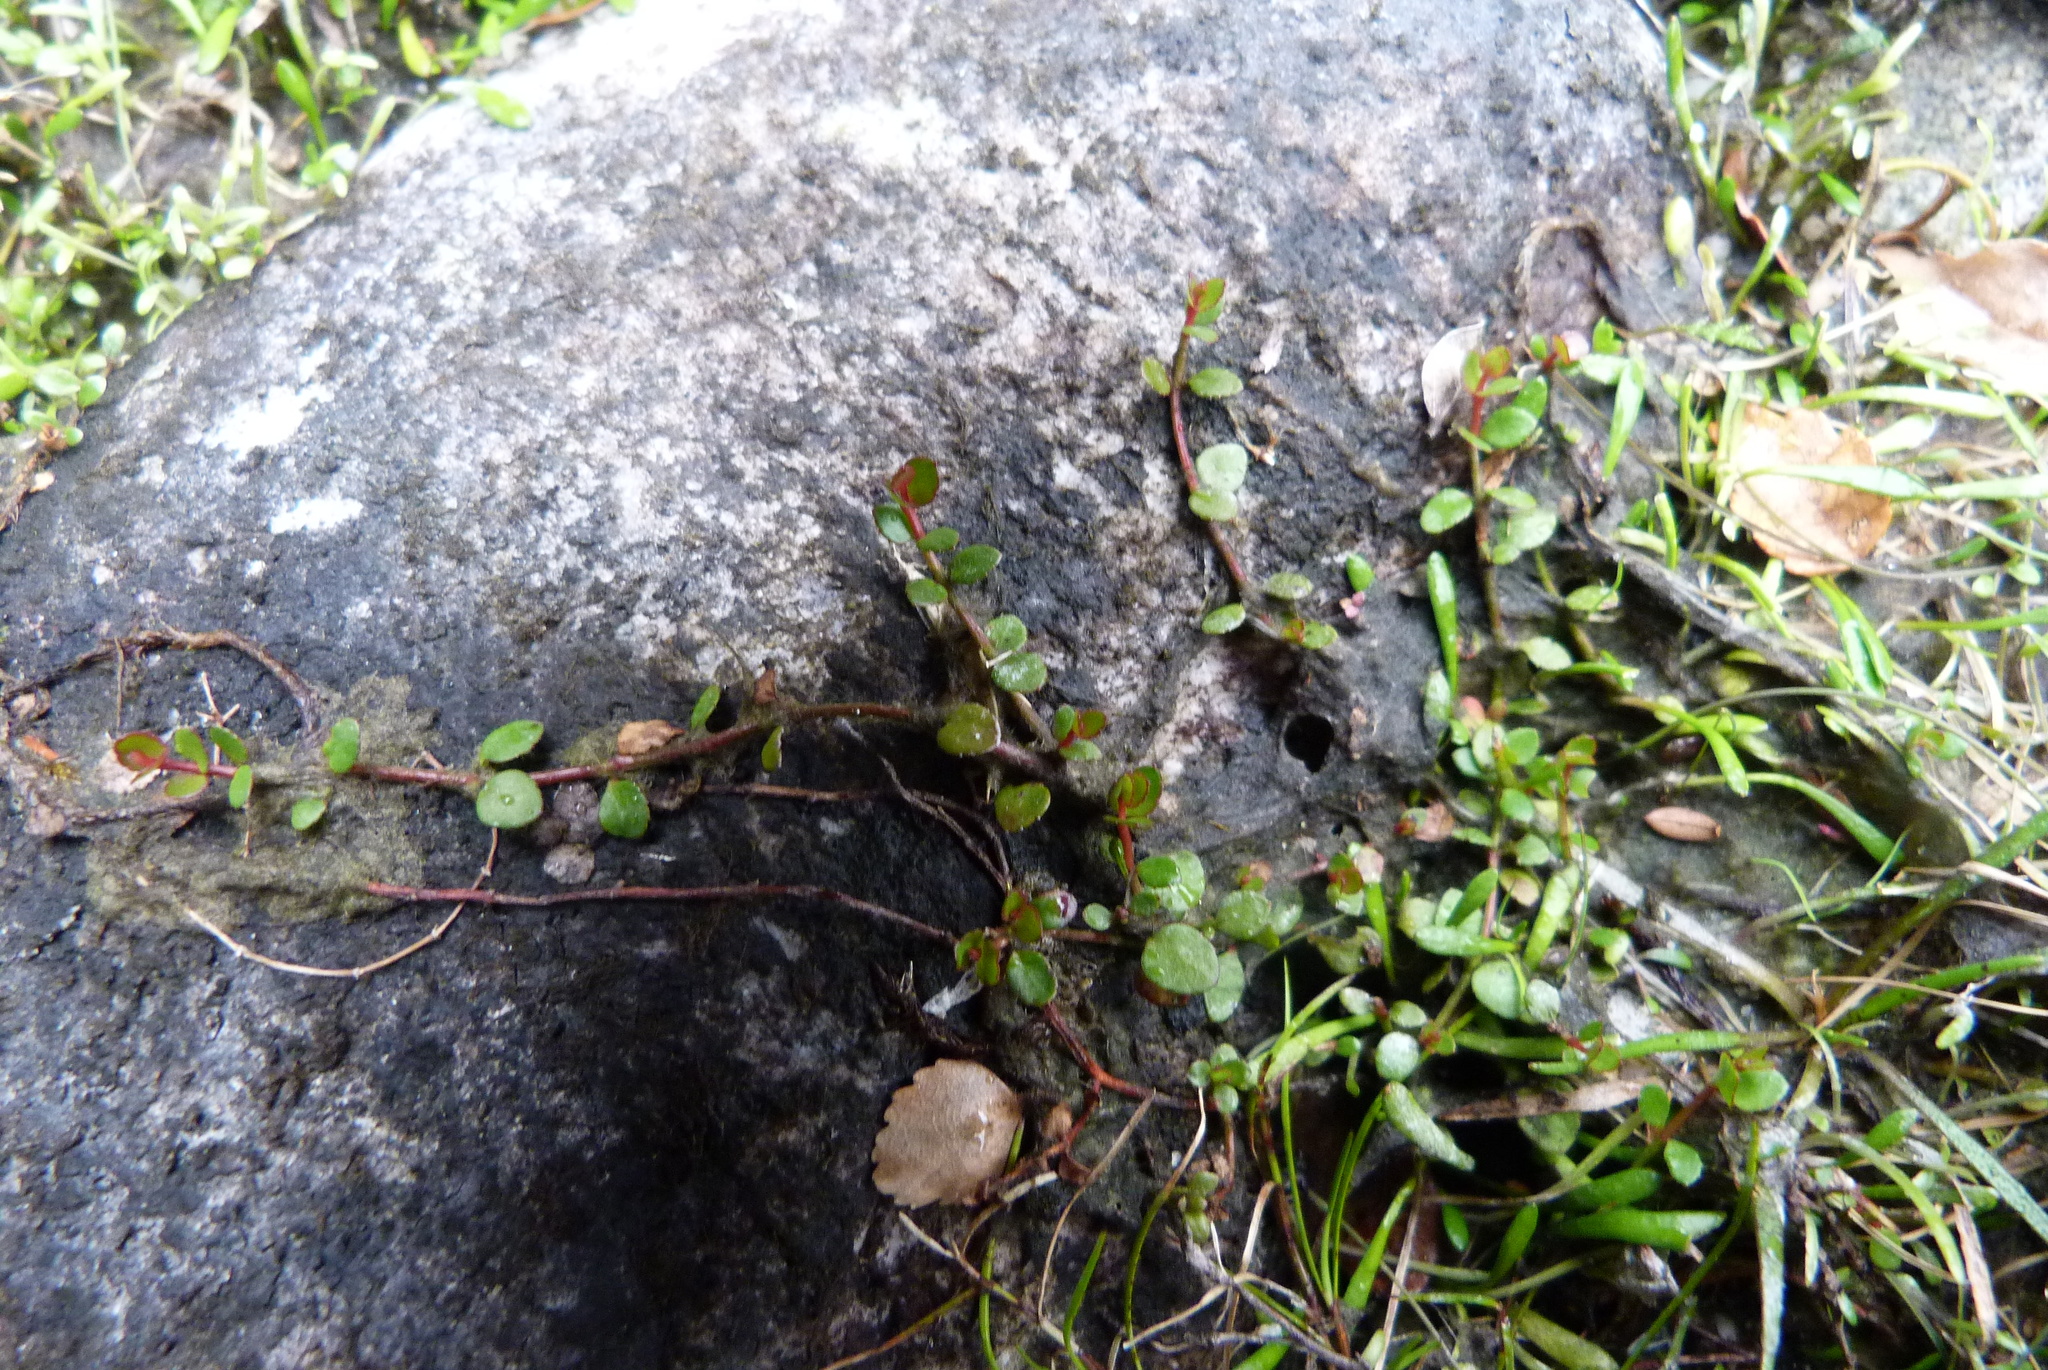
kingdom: Plantae
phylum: Tracheophyta
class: Magnoliopsida
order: Saxifragales
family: Haloragaceae
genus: Gonocarpus
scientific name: Gonocarpus micranthus
